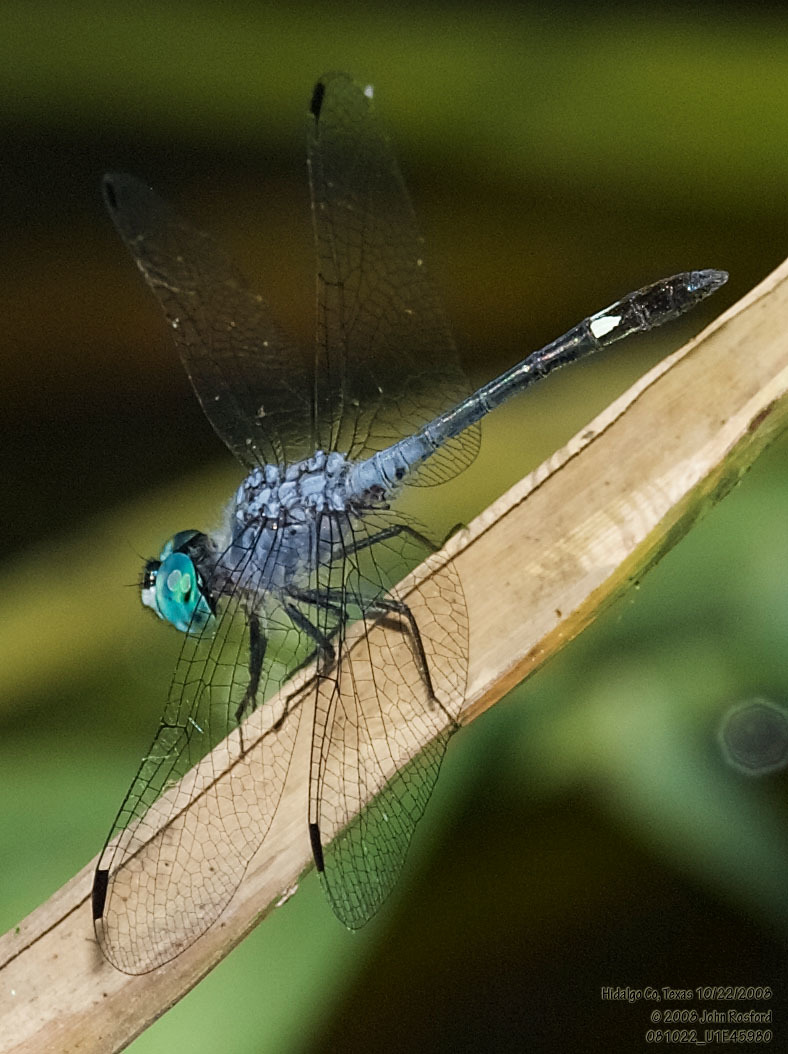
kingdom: Animalia
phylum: Arthropoda
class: Insecta
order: Odonata
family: Libellulidae
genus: Micrathyria
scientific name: Micrathyria aequalis
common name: Spot-tailed dasher
